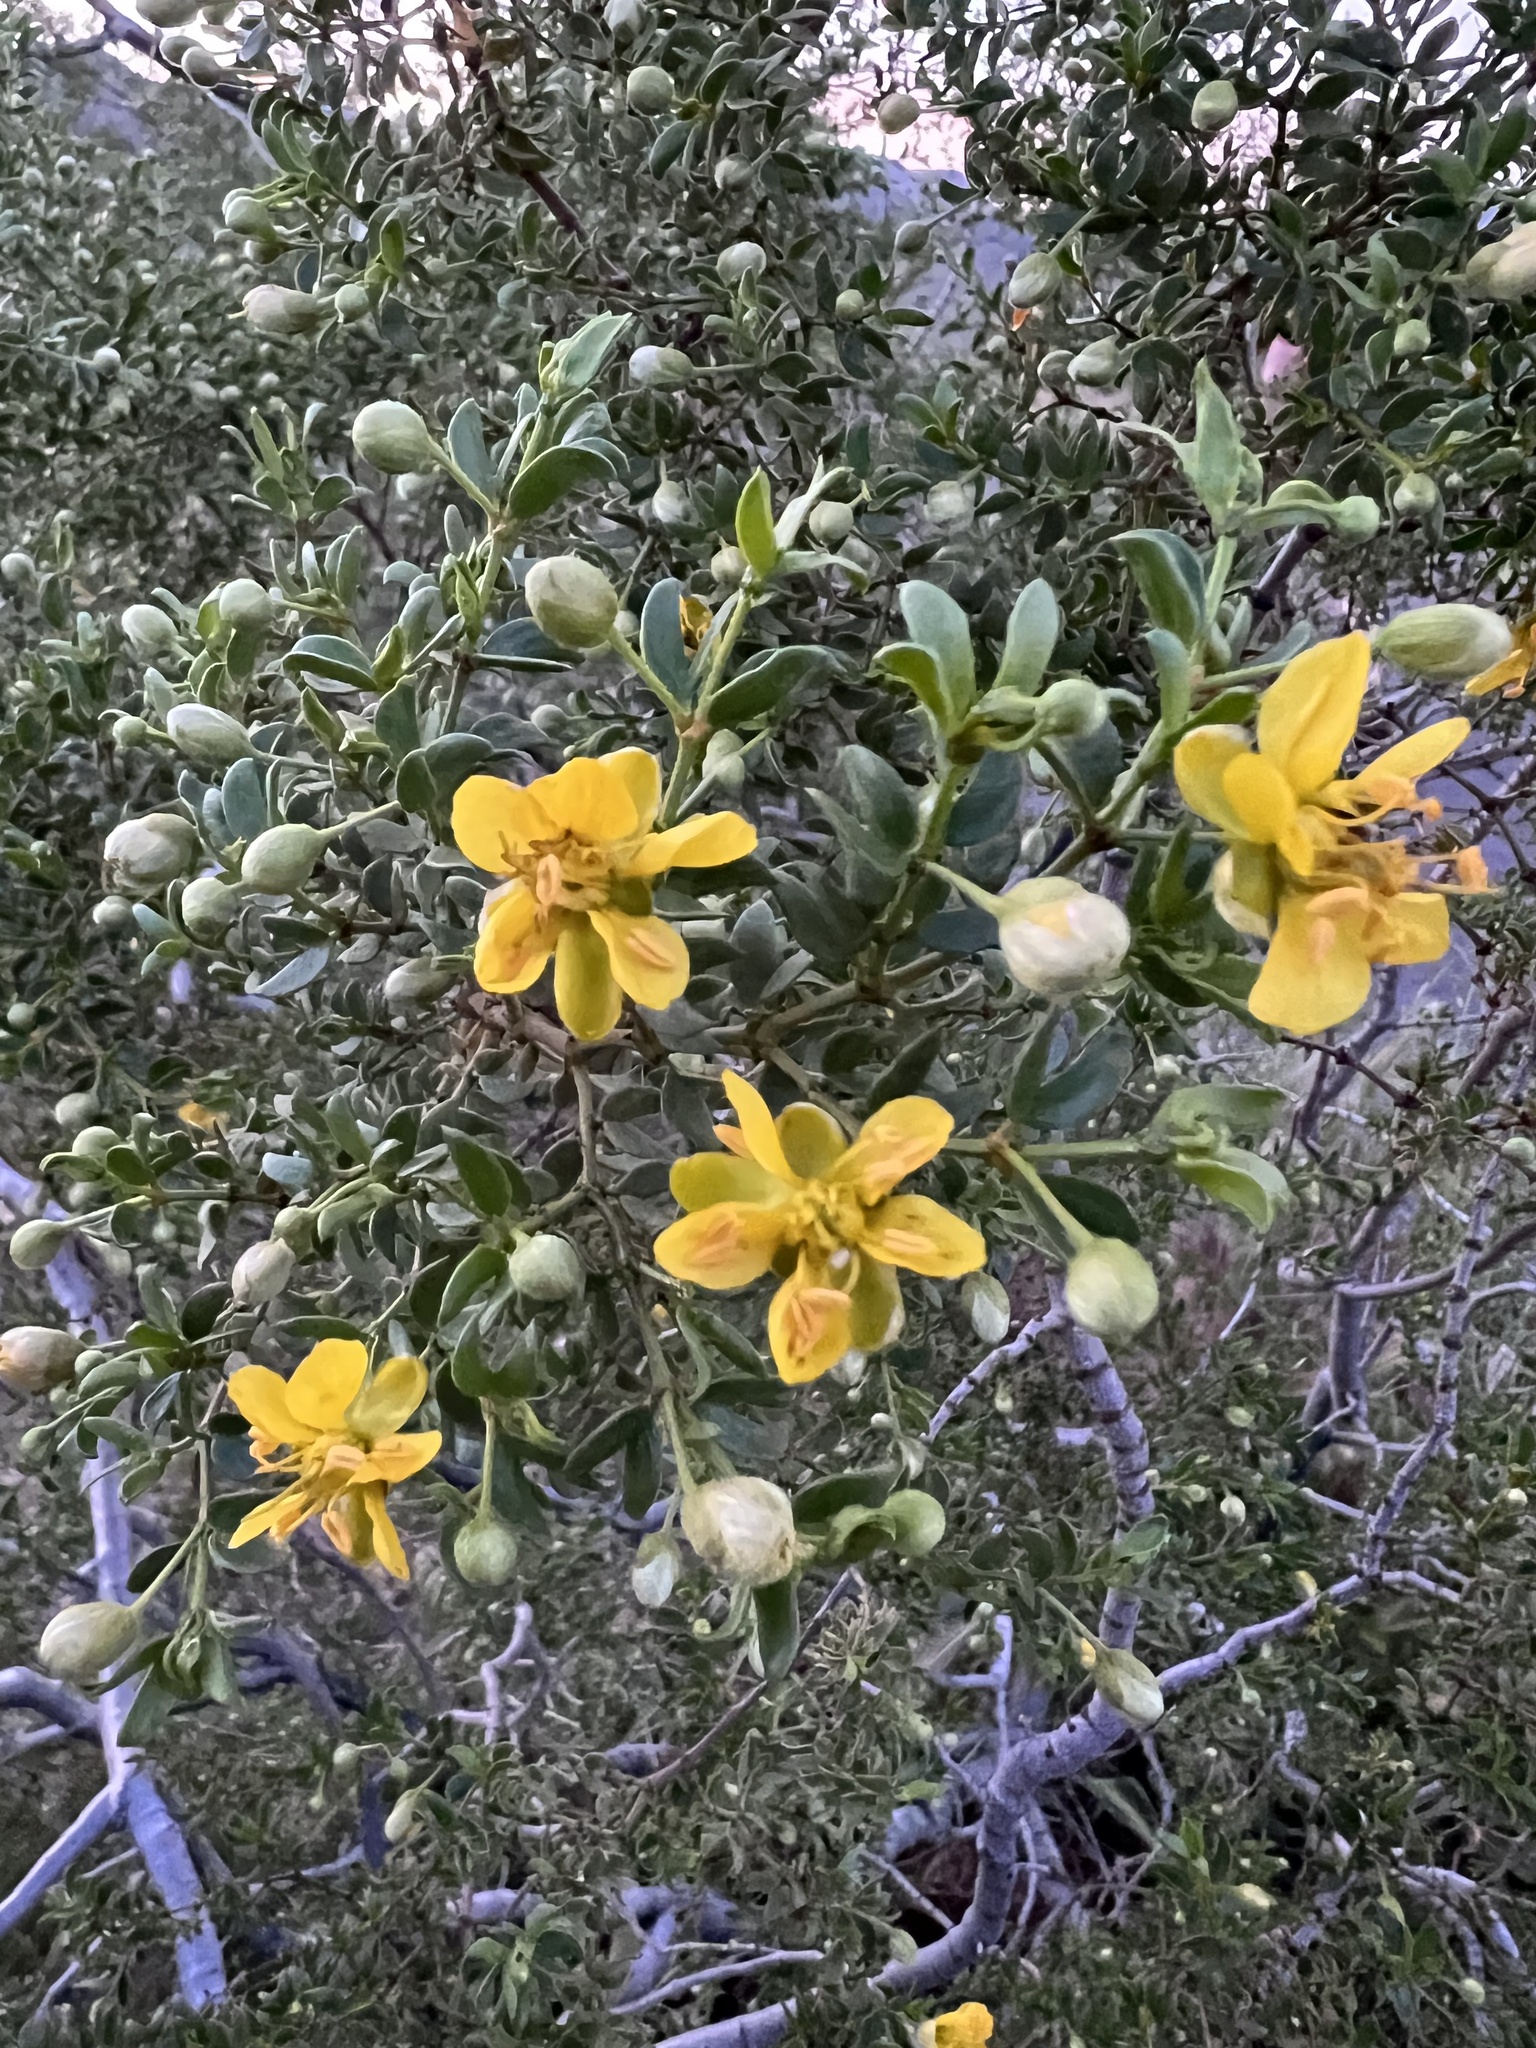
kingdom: Plantae
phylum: Tracheophyta
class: Magnoliopsida
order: Zygophyllales
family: Zygophyllaceae
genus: Larrea
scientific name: Larrea tridentata
